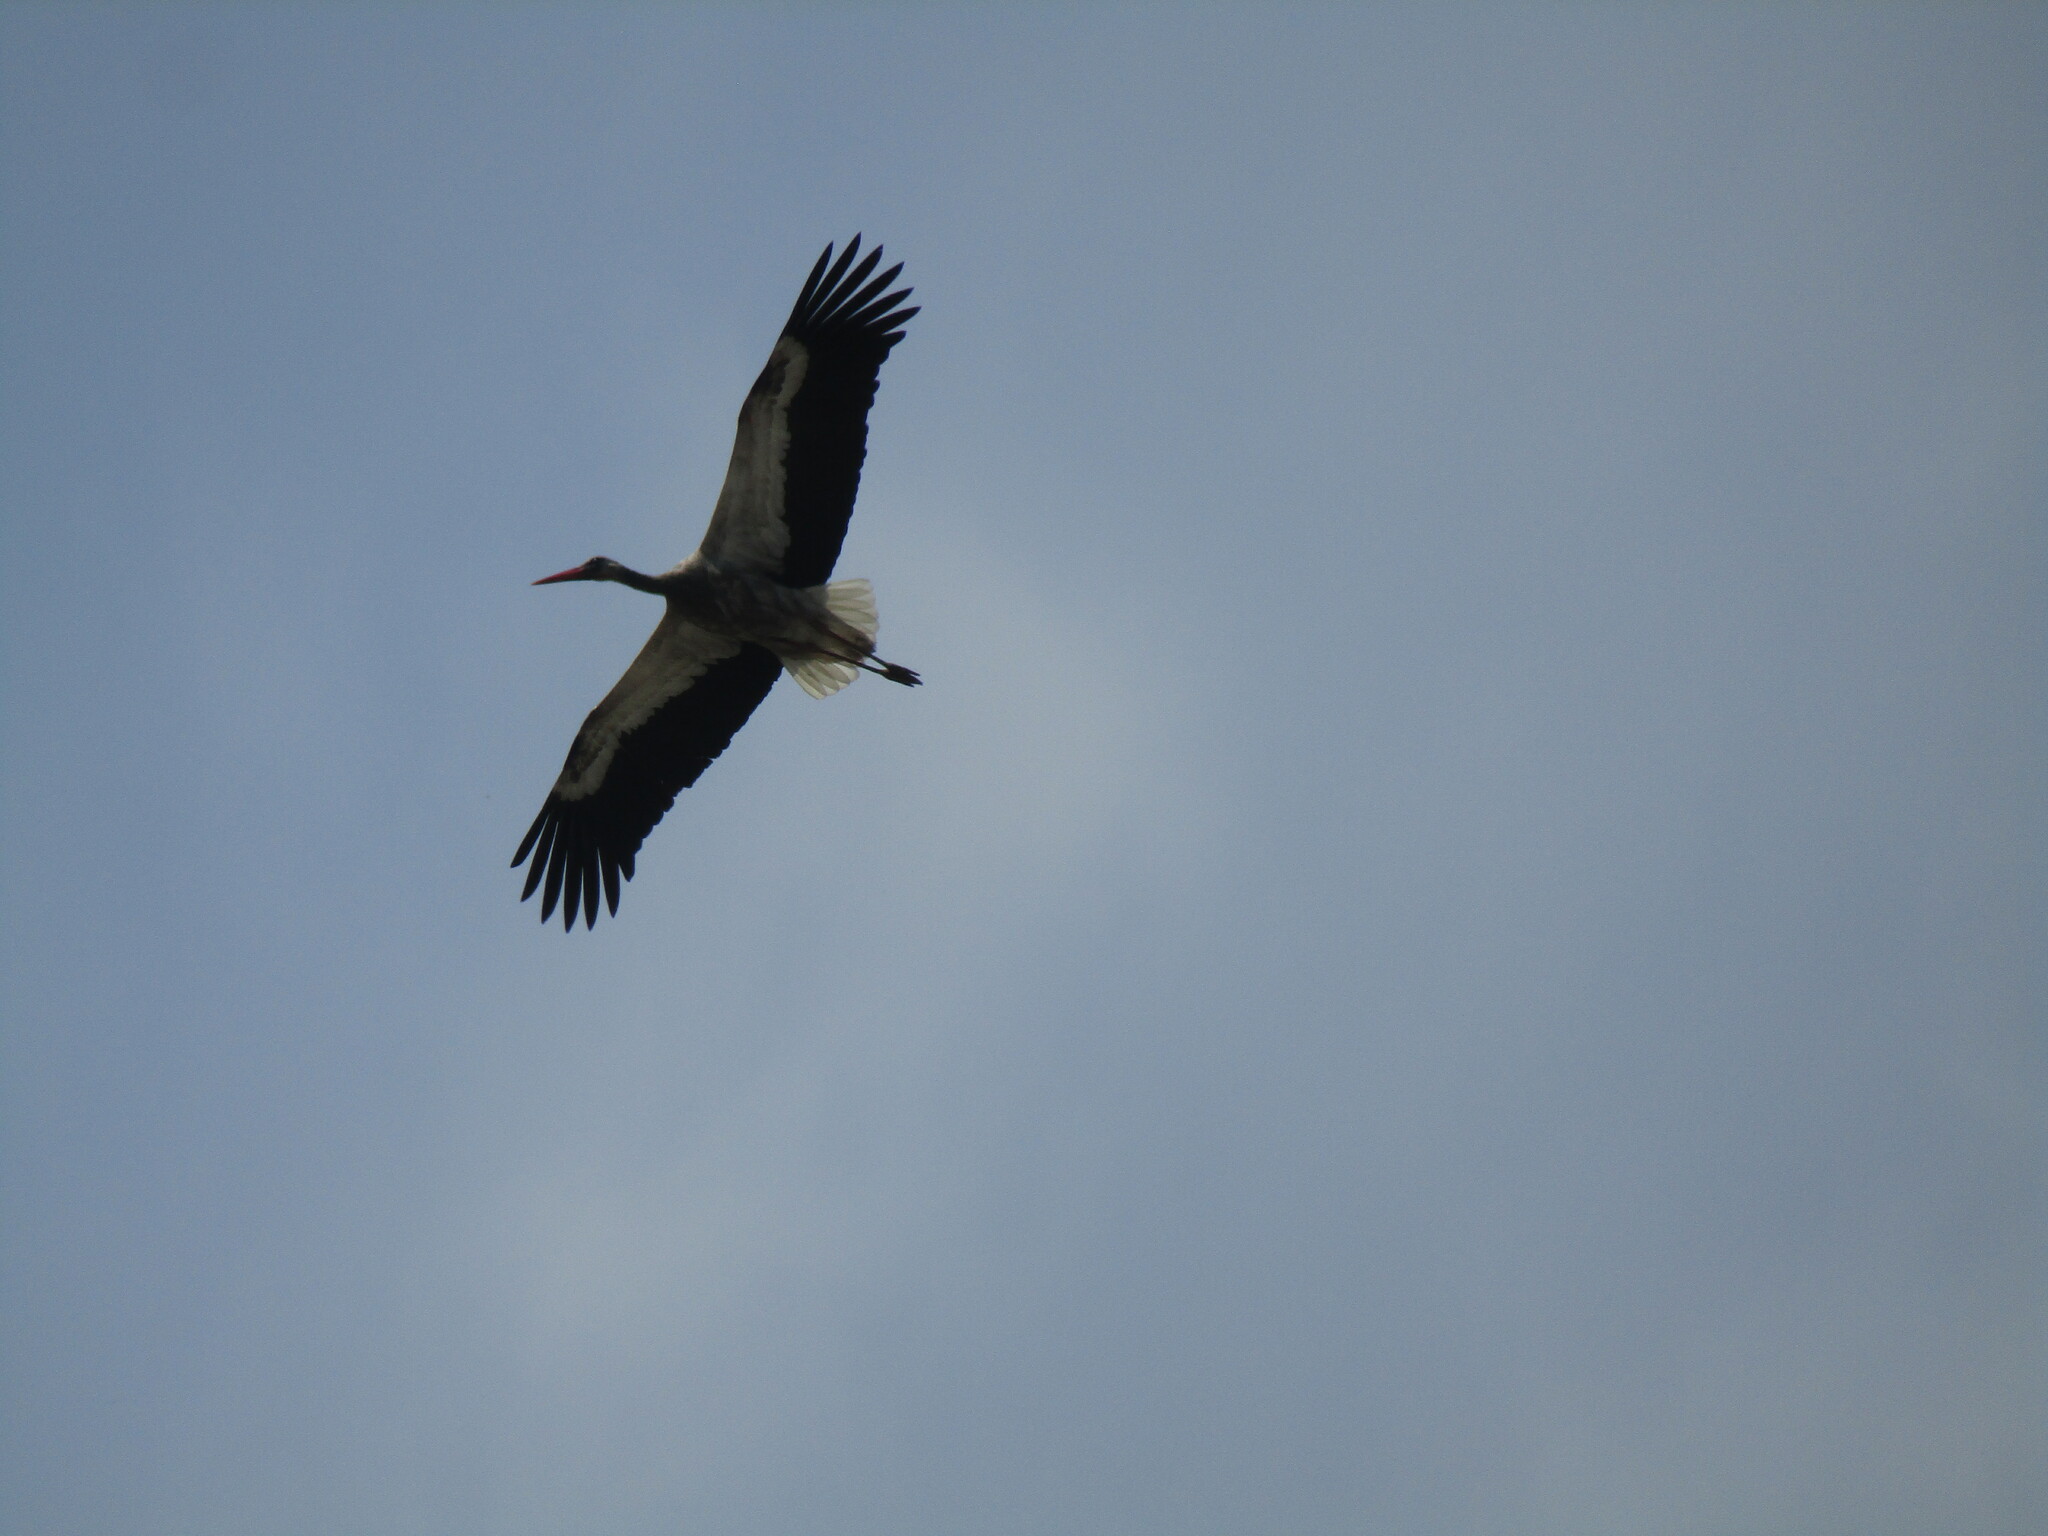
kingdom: Animalia
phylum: Chordata
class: Aves
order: Ciconiiformes
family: Ciconiidae
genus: Ciconia
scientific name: Ciconia ciconia
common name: White stork
